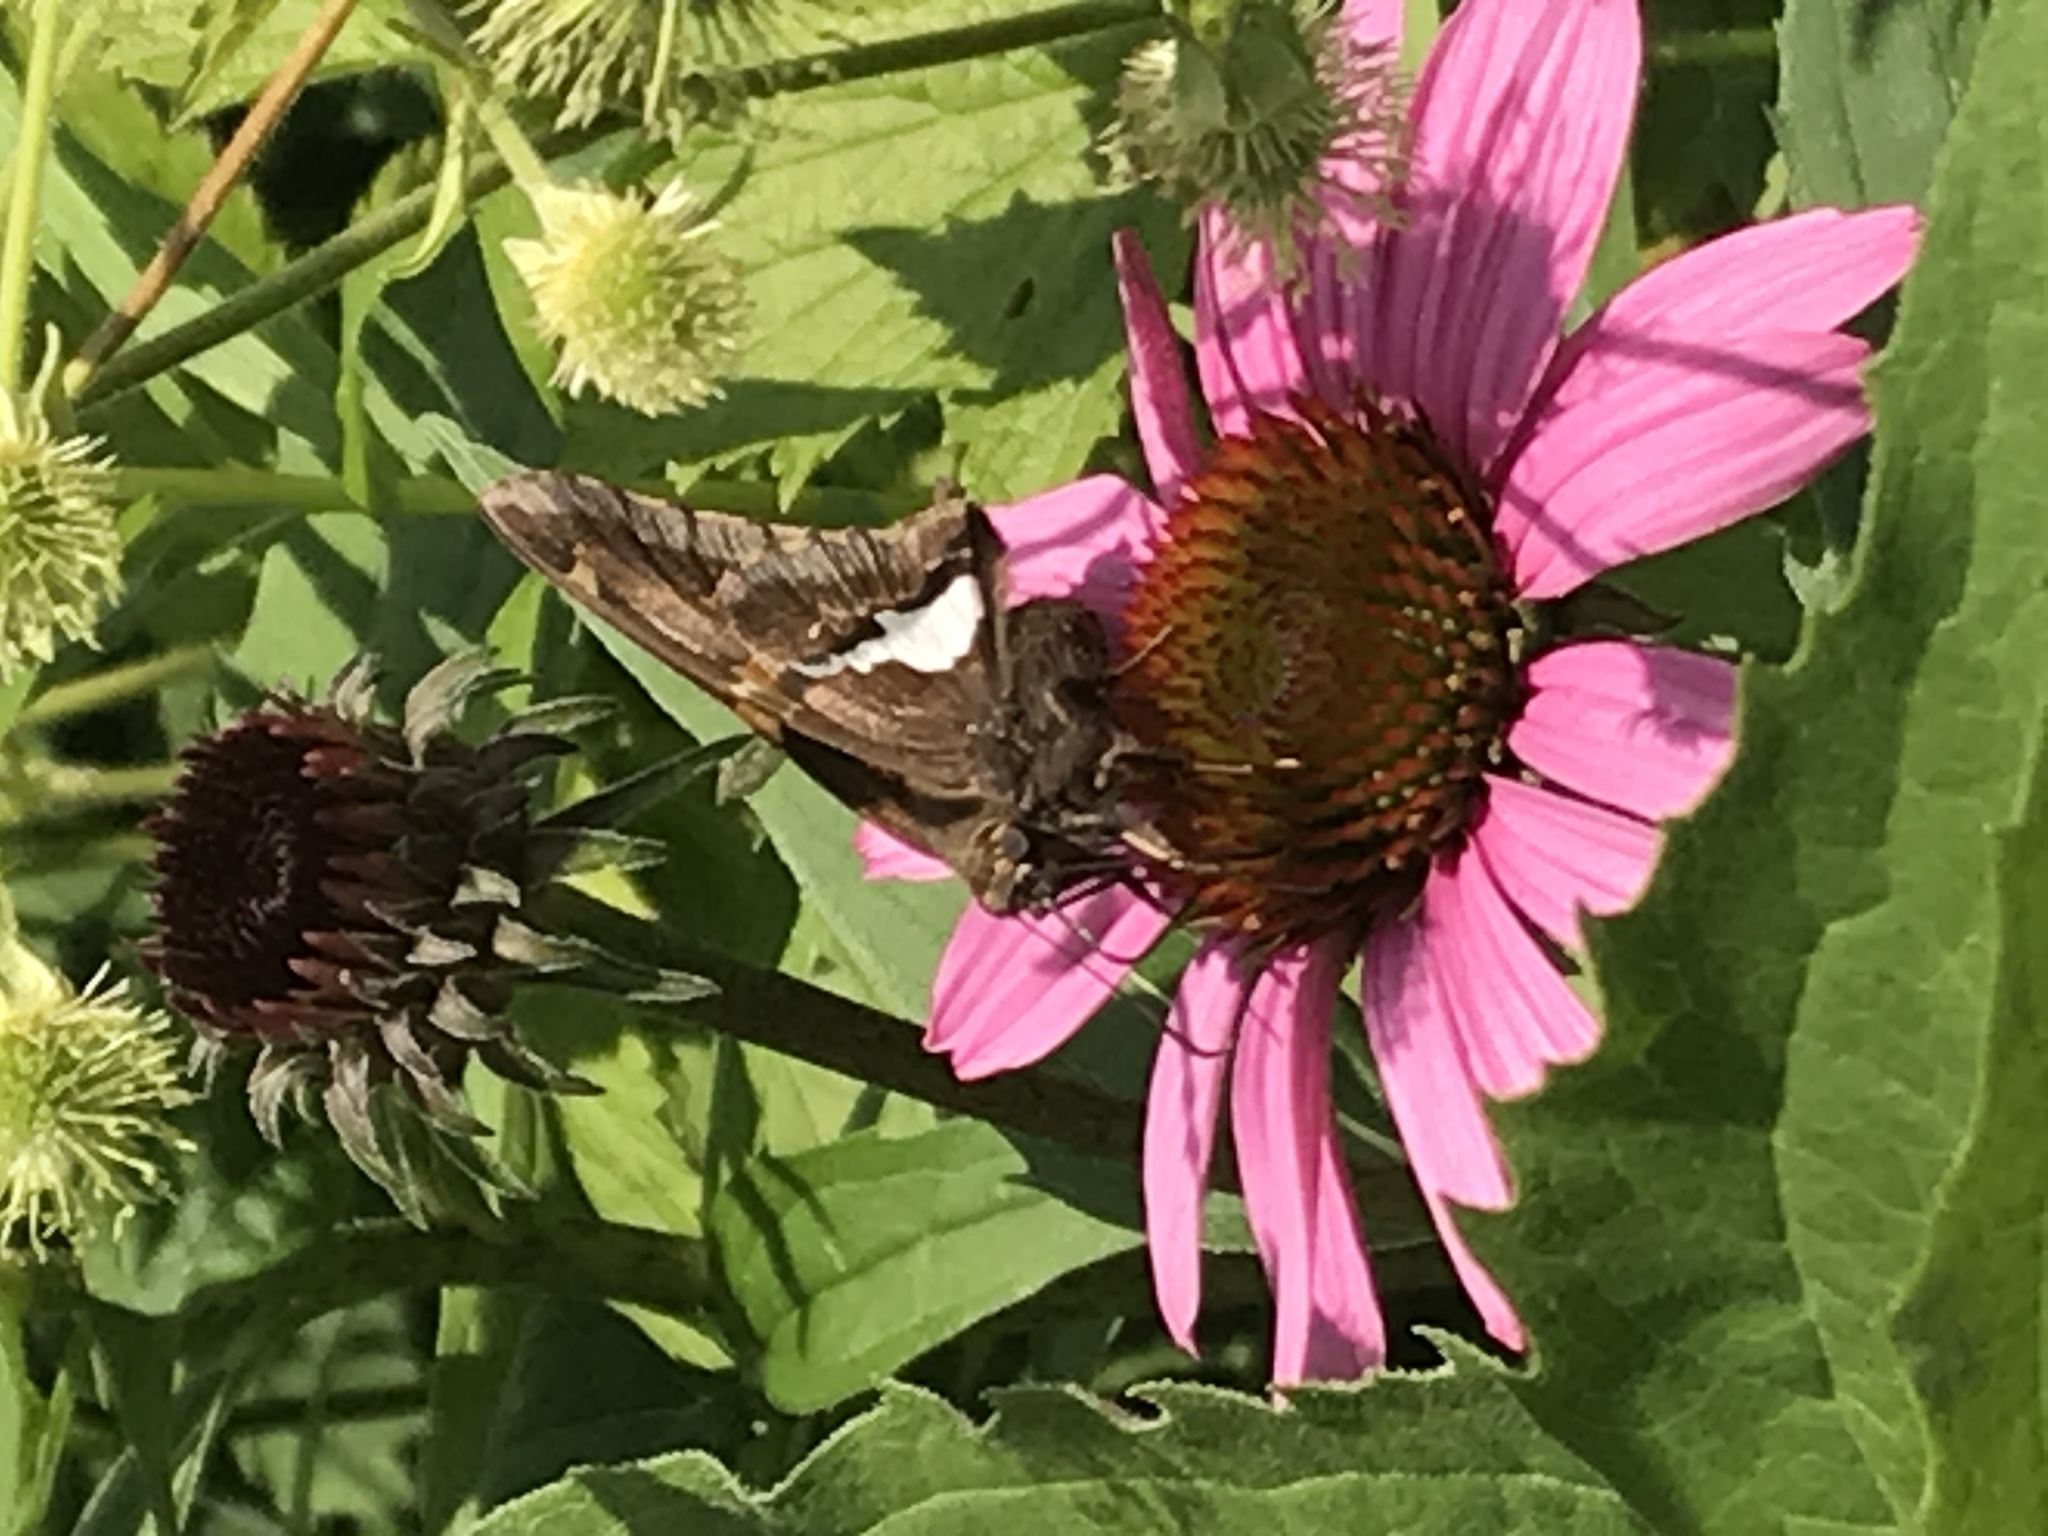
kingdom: Animalia
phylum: Arthropoda
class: Insecta
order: Lepidoptera
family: Hesperiidae
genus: Epargyreus
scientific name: Epargyreus clarus
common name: Silver-spotted skipper
